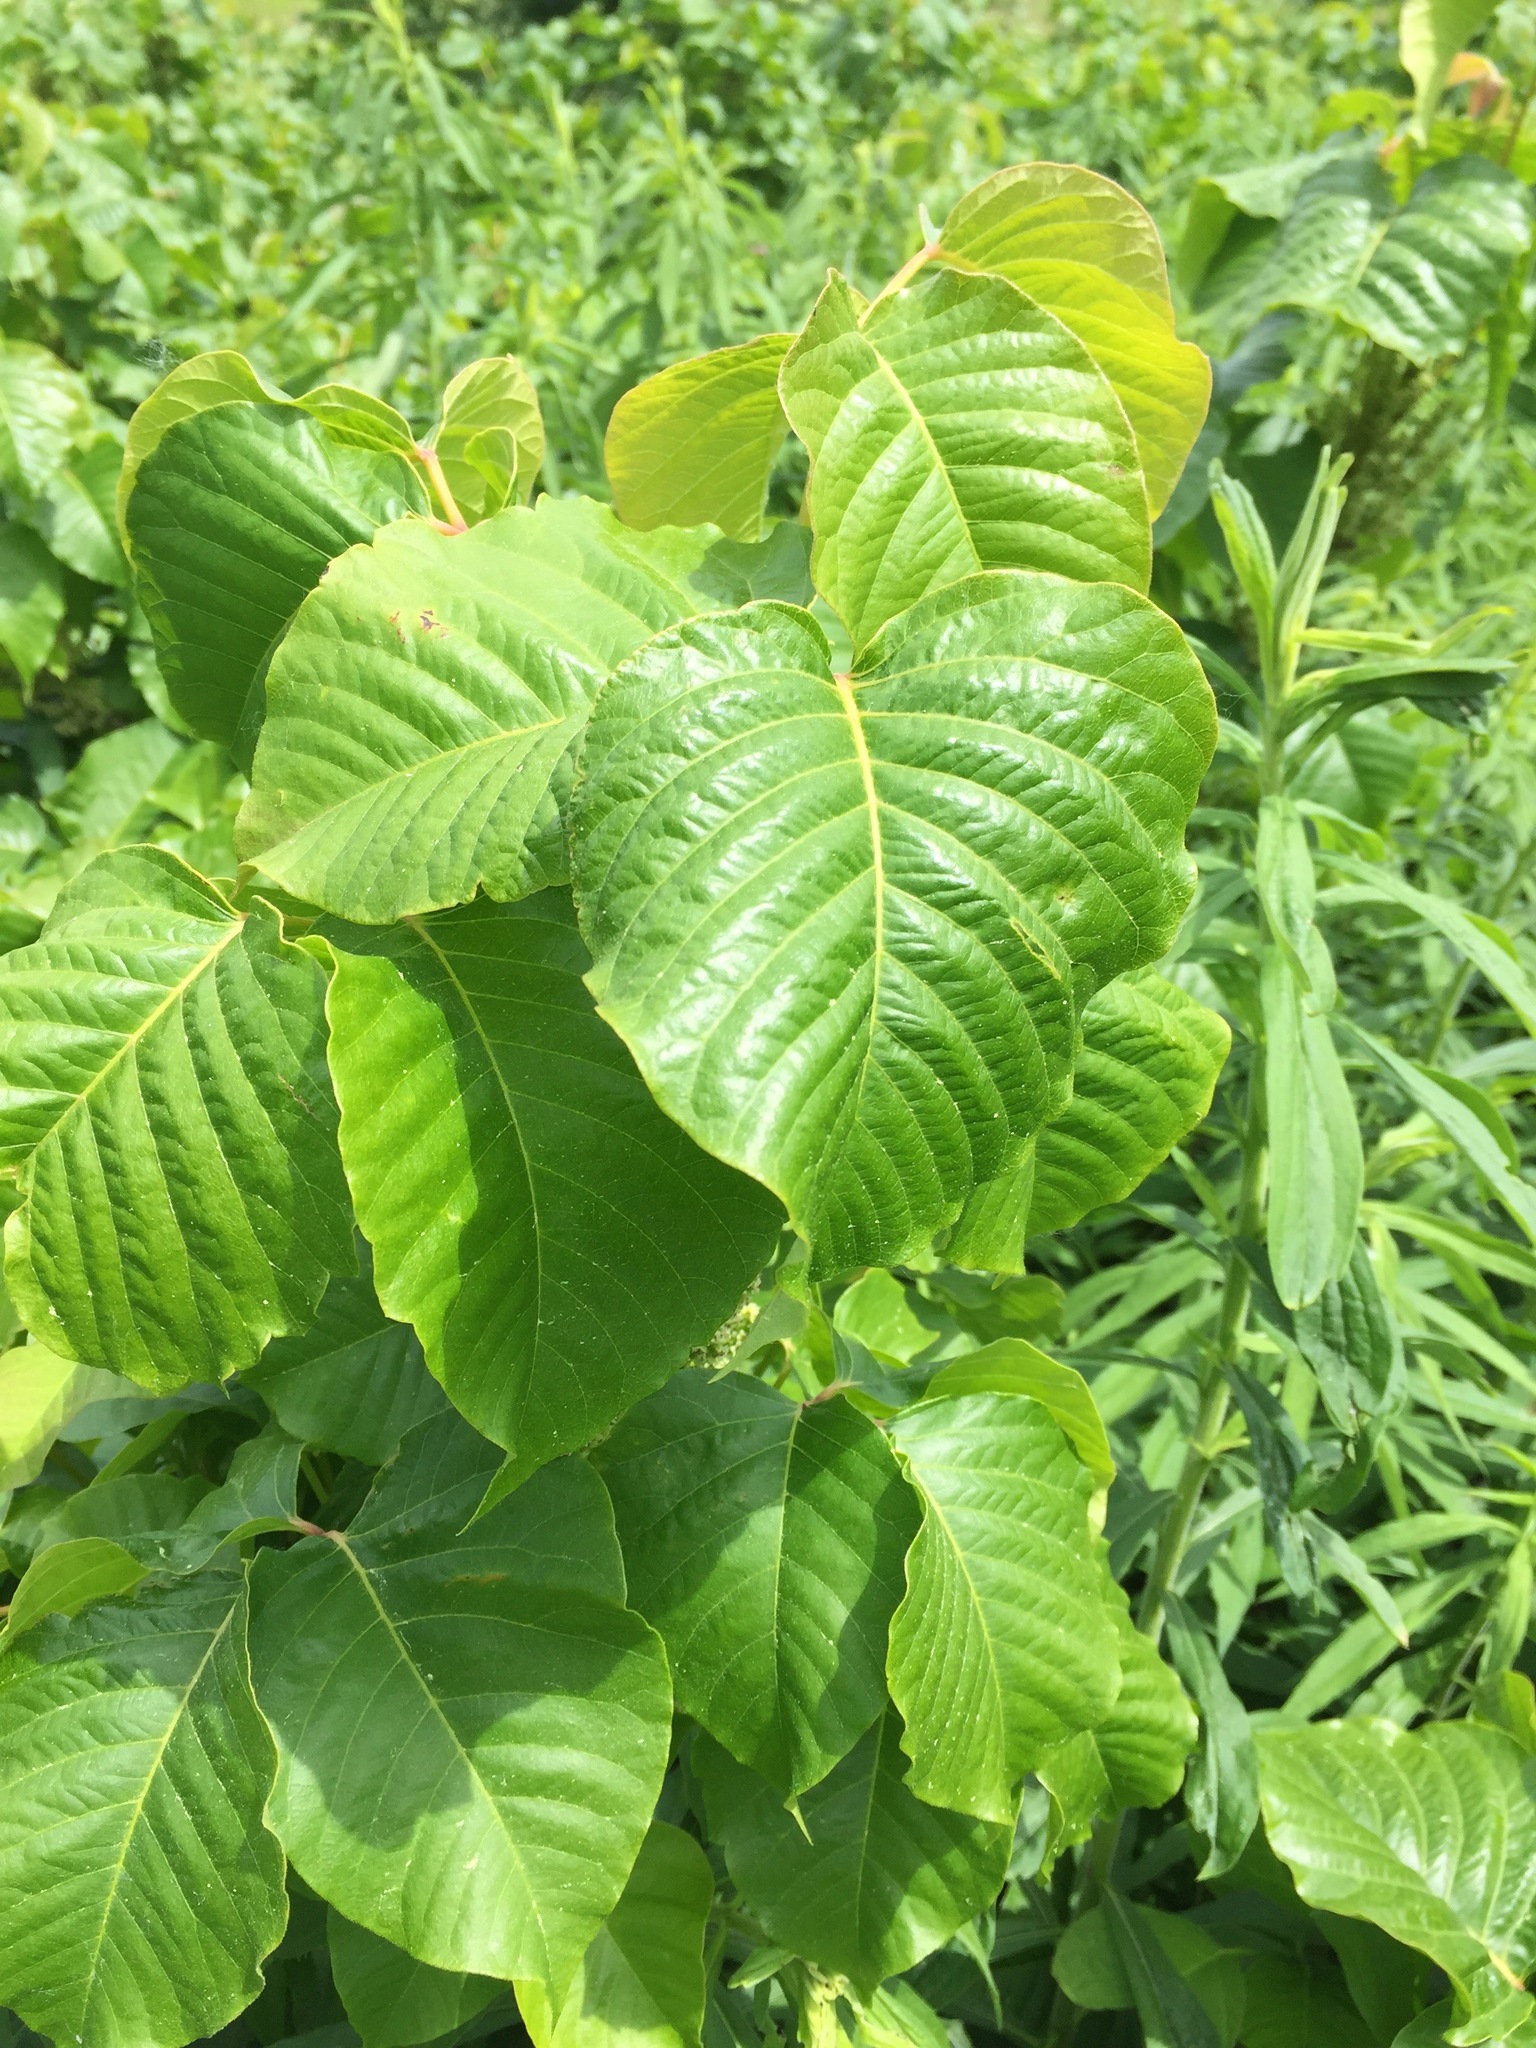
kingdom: Plantae
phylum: Tracheophyta
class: Magnoliopsida
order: Sapindales
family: Anacardiaceae
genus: Toxicodendron
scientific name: Toxicodendron rydbergii
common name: Rydberg's poison-ivy
